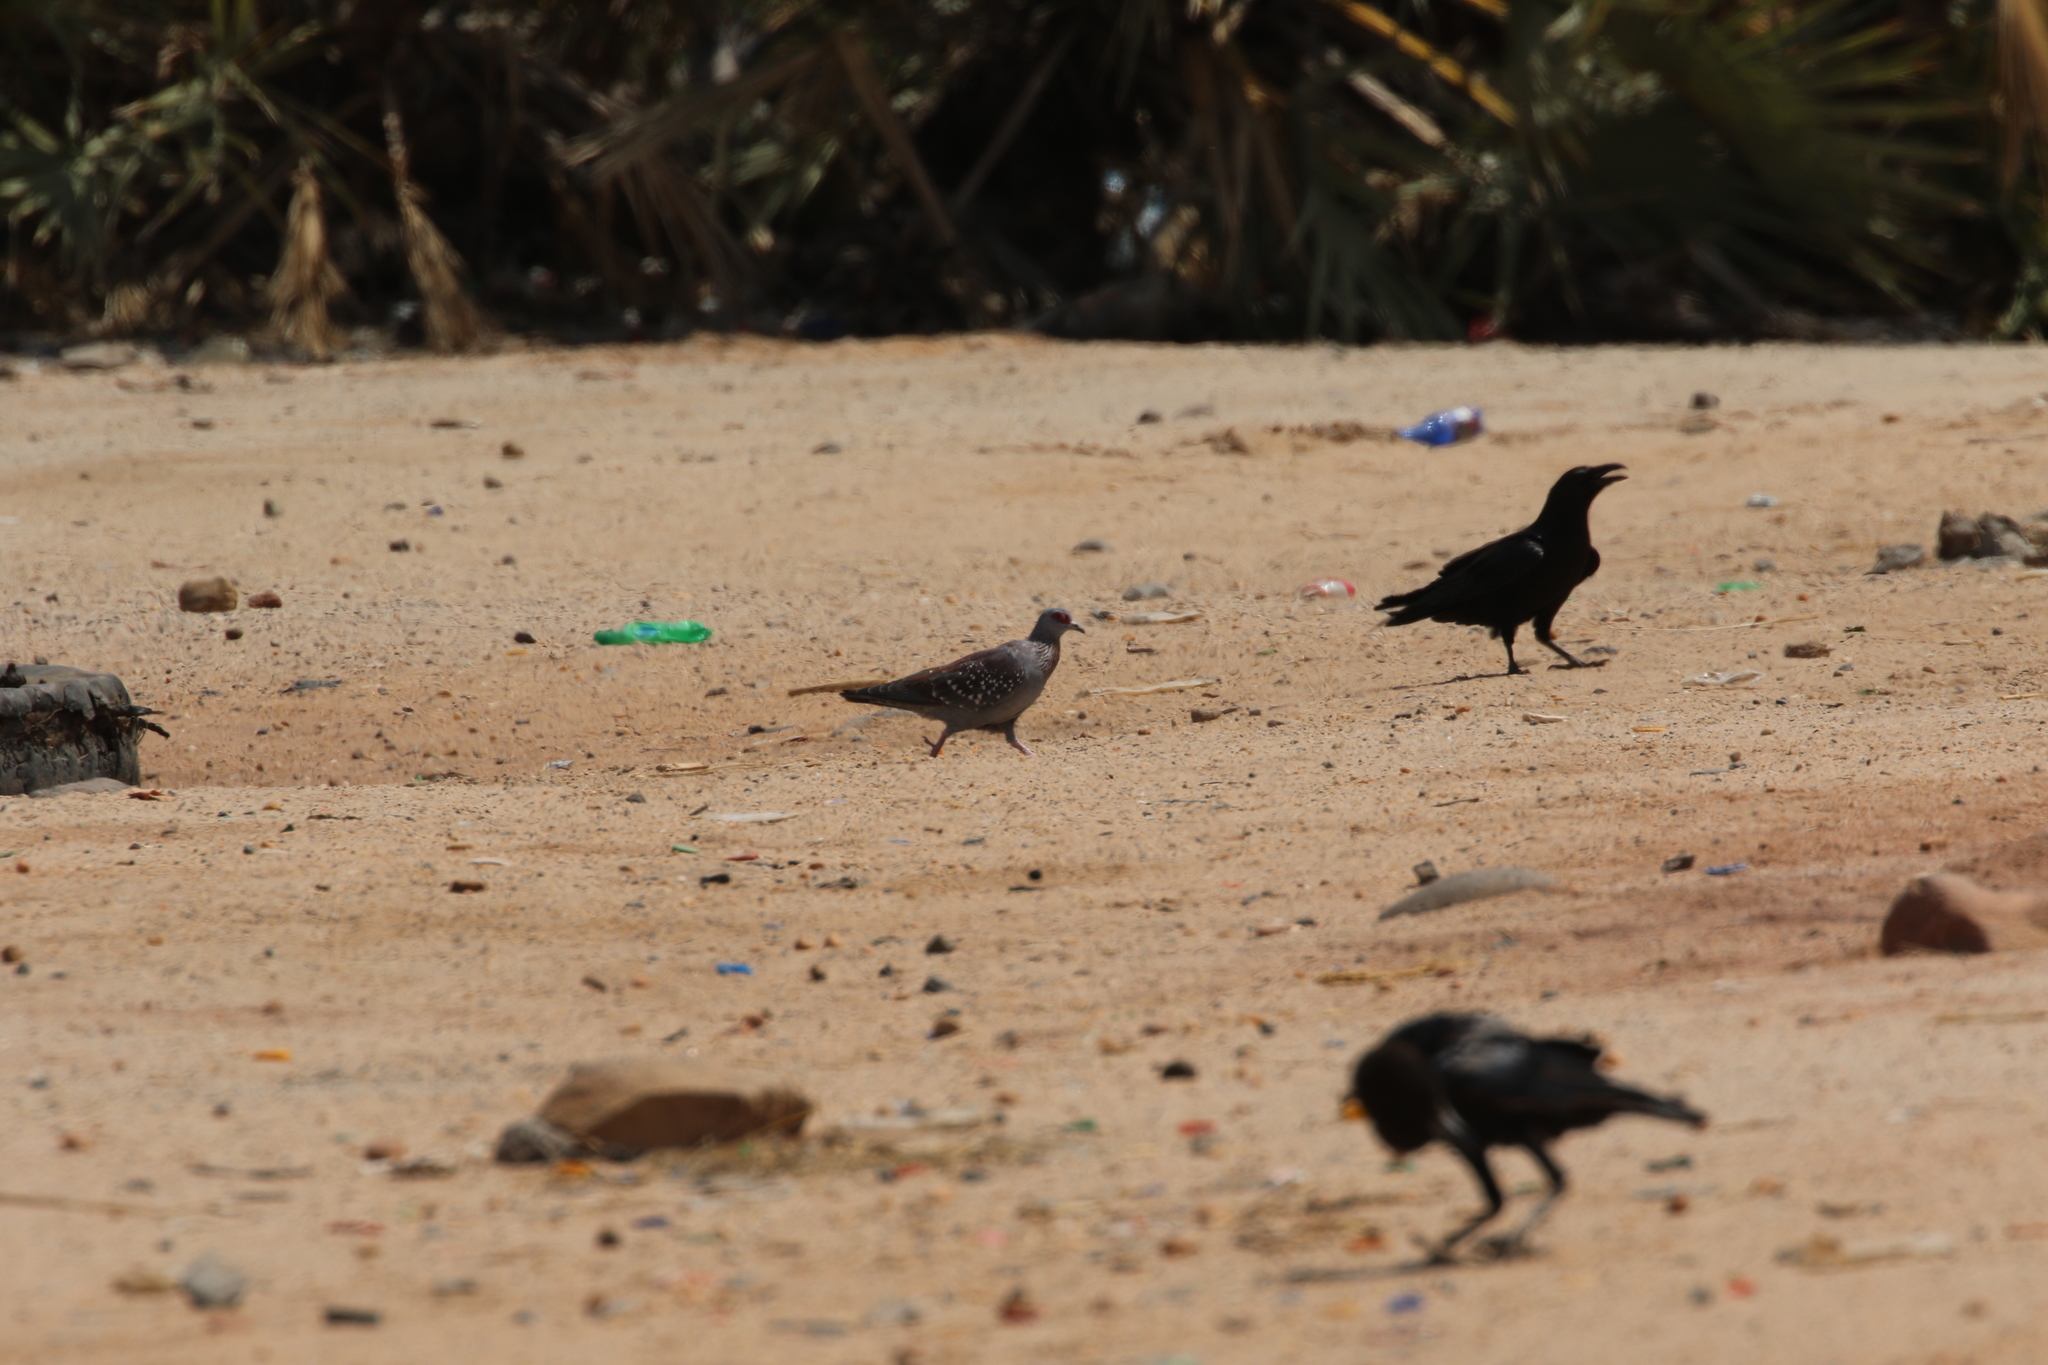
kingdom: Animalia
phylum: Chordata
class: Aves
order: Columbiformes
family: Columbidae
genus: Columba
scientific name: Columba guinea
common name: Speckled pigeon
